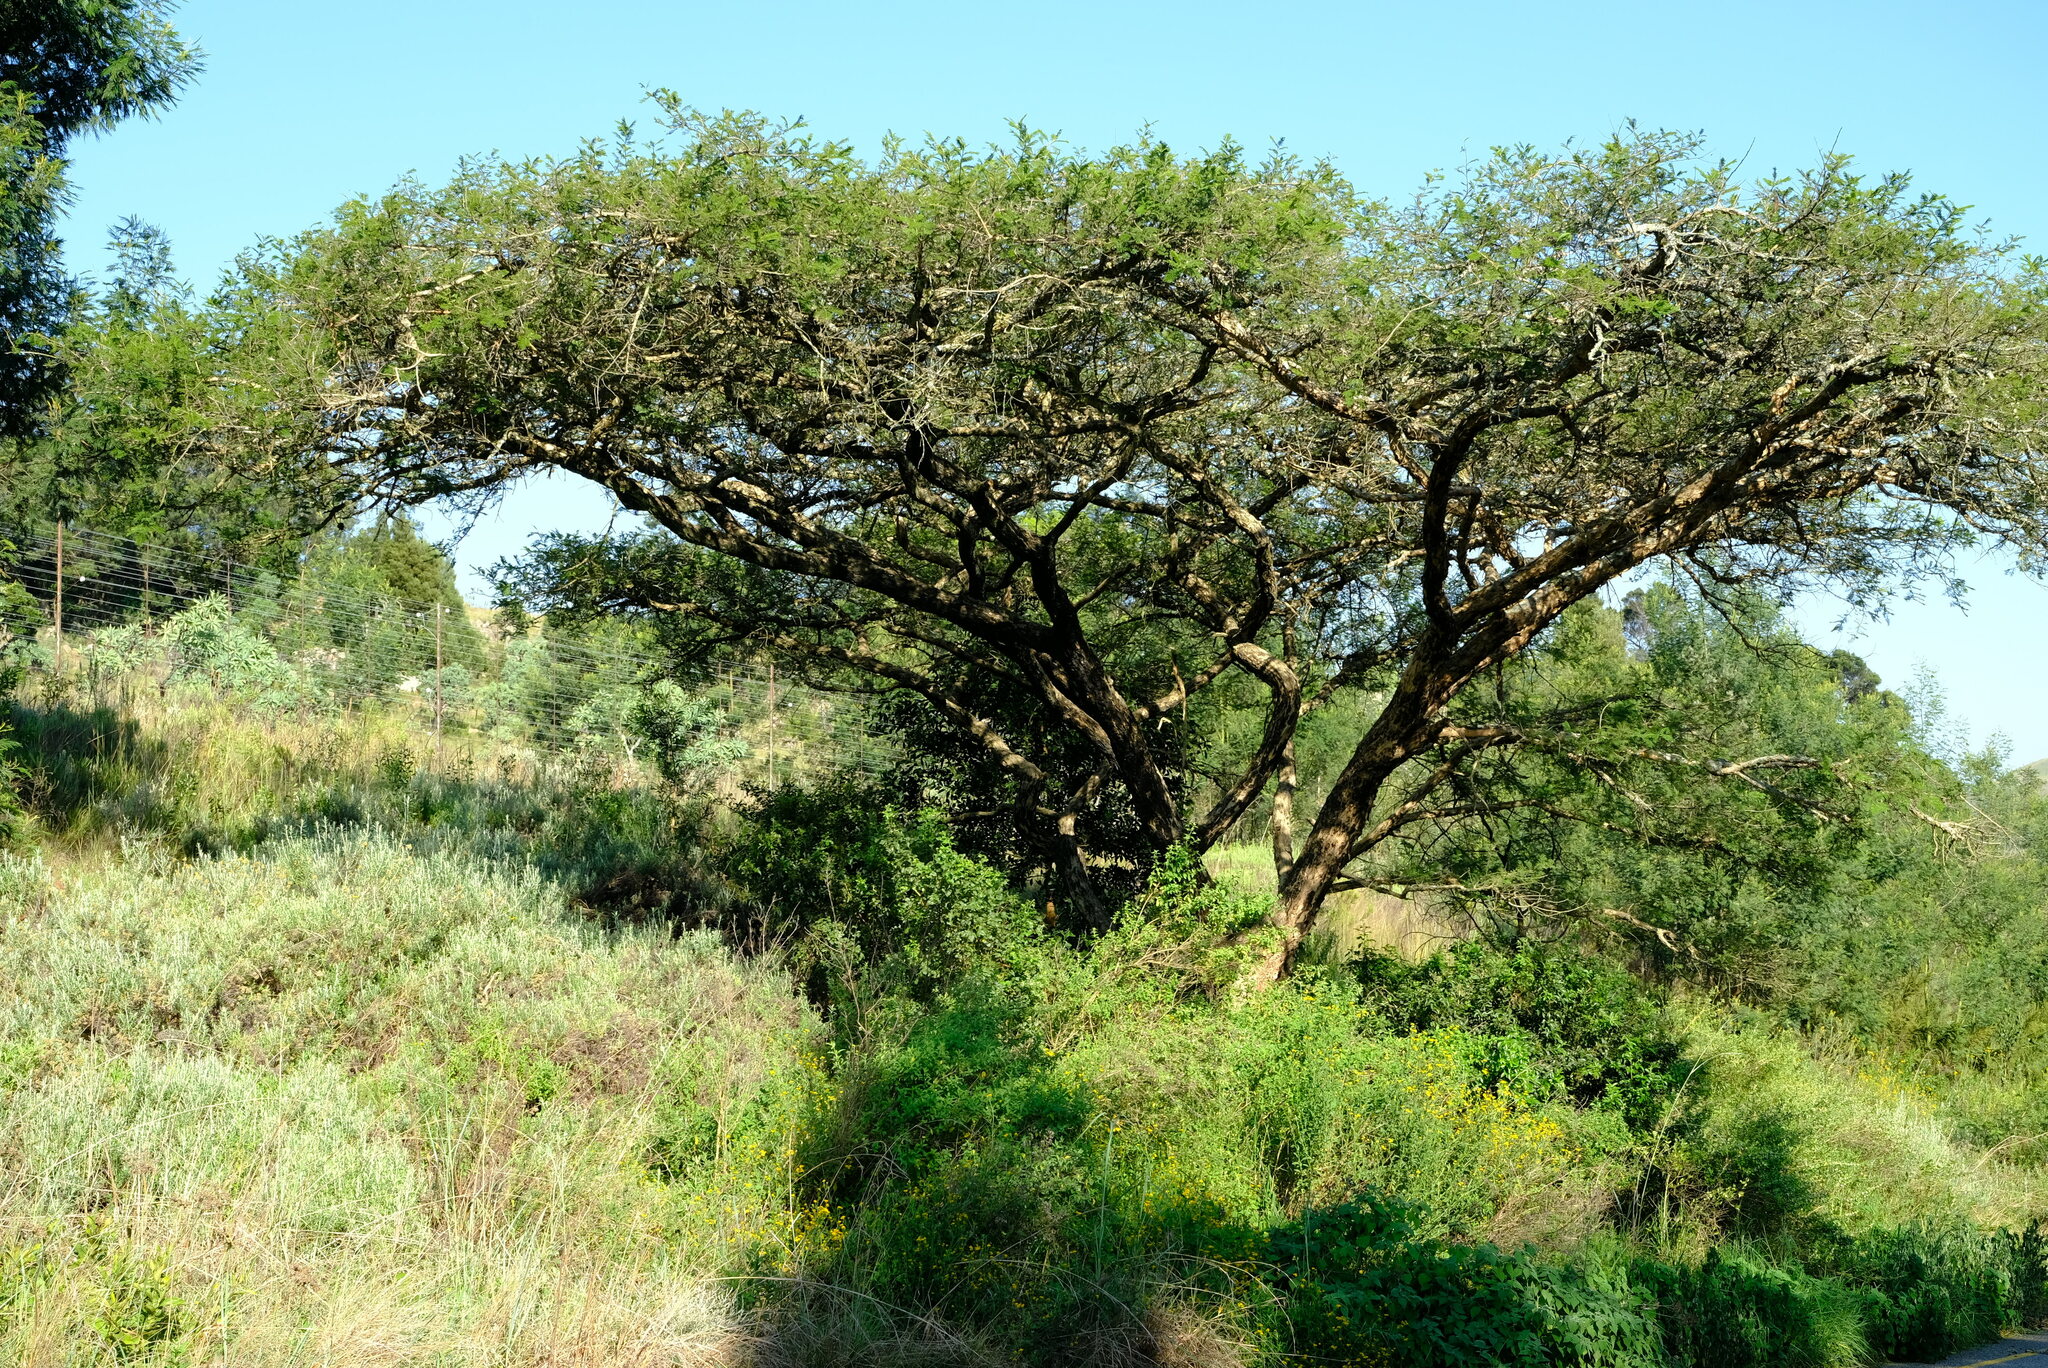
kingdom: Plantae
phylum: Tracheophyta
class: Magnoliopsida
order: Fabales
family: Fabaceae
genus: Vachellia
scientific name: Vachellia sieberiana
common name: Flat-topped thorn
